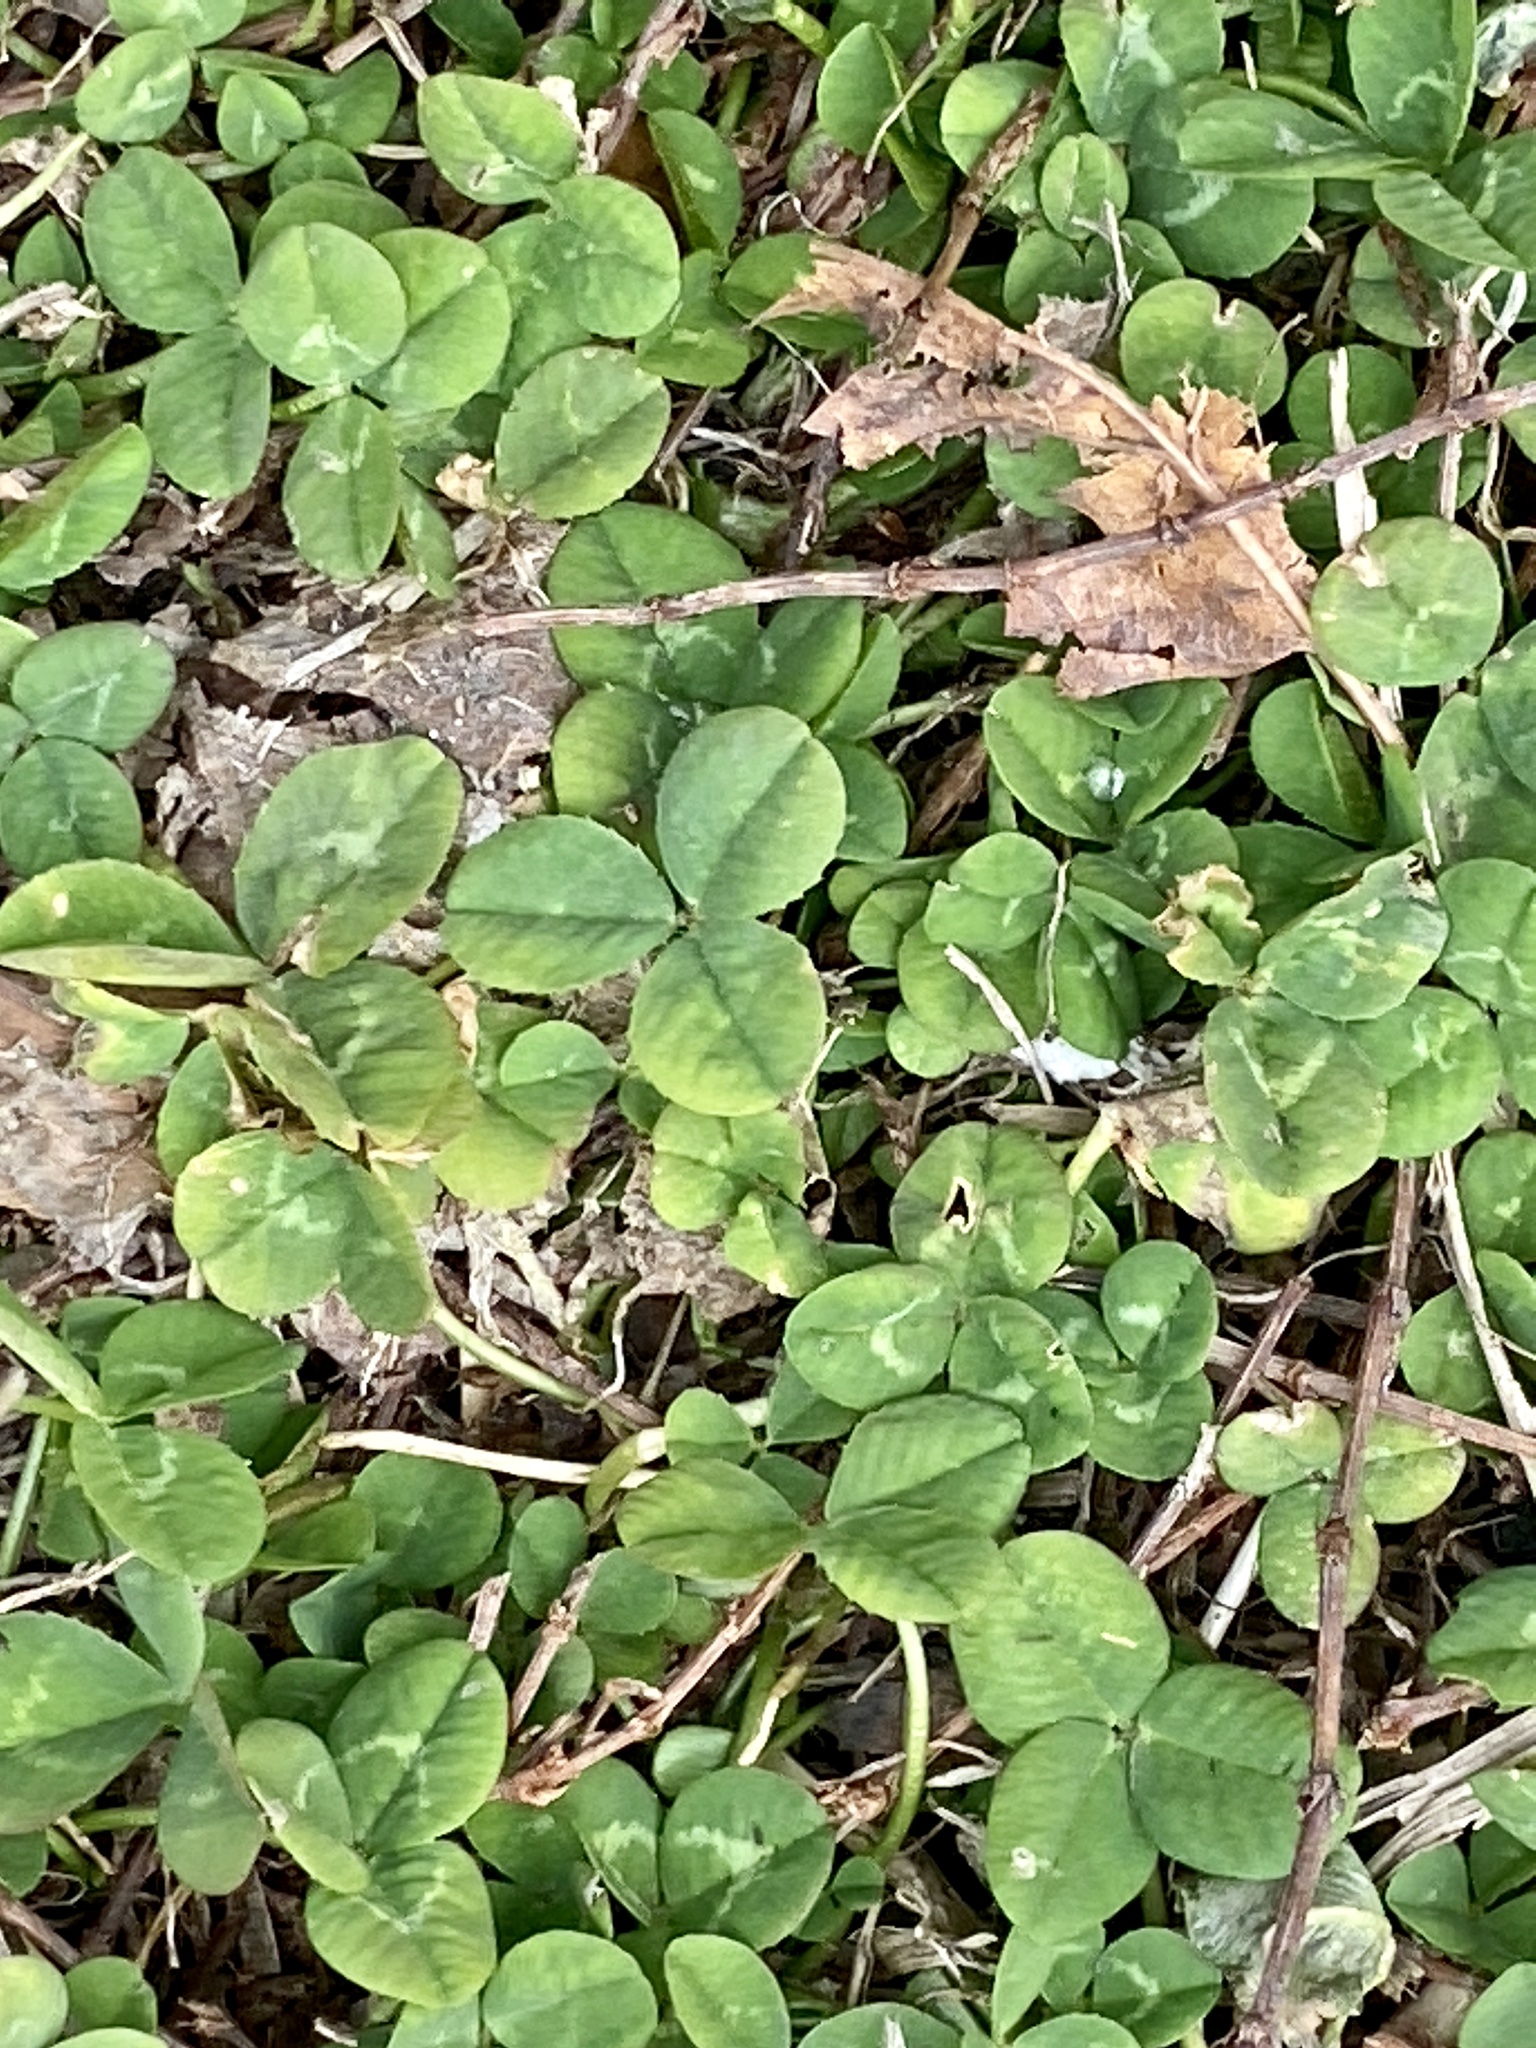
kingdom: Plantae
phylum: Tracheophyta
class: Magnoliopsida
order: Fabales
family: Fabaceae
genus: Trifolium
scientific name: Trifolium repens
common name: White clover
